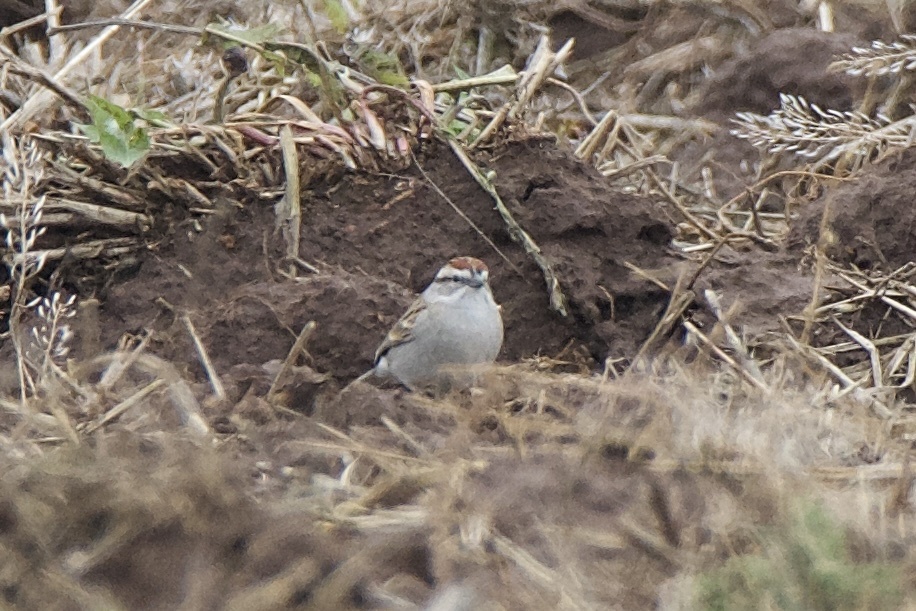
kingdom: Animalia
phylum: Chordata
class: Aves
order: Passeriformes
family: Passerellidae
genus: Spizella
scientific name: Spizella passerina
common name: Chipping sparrow
